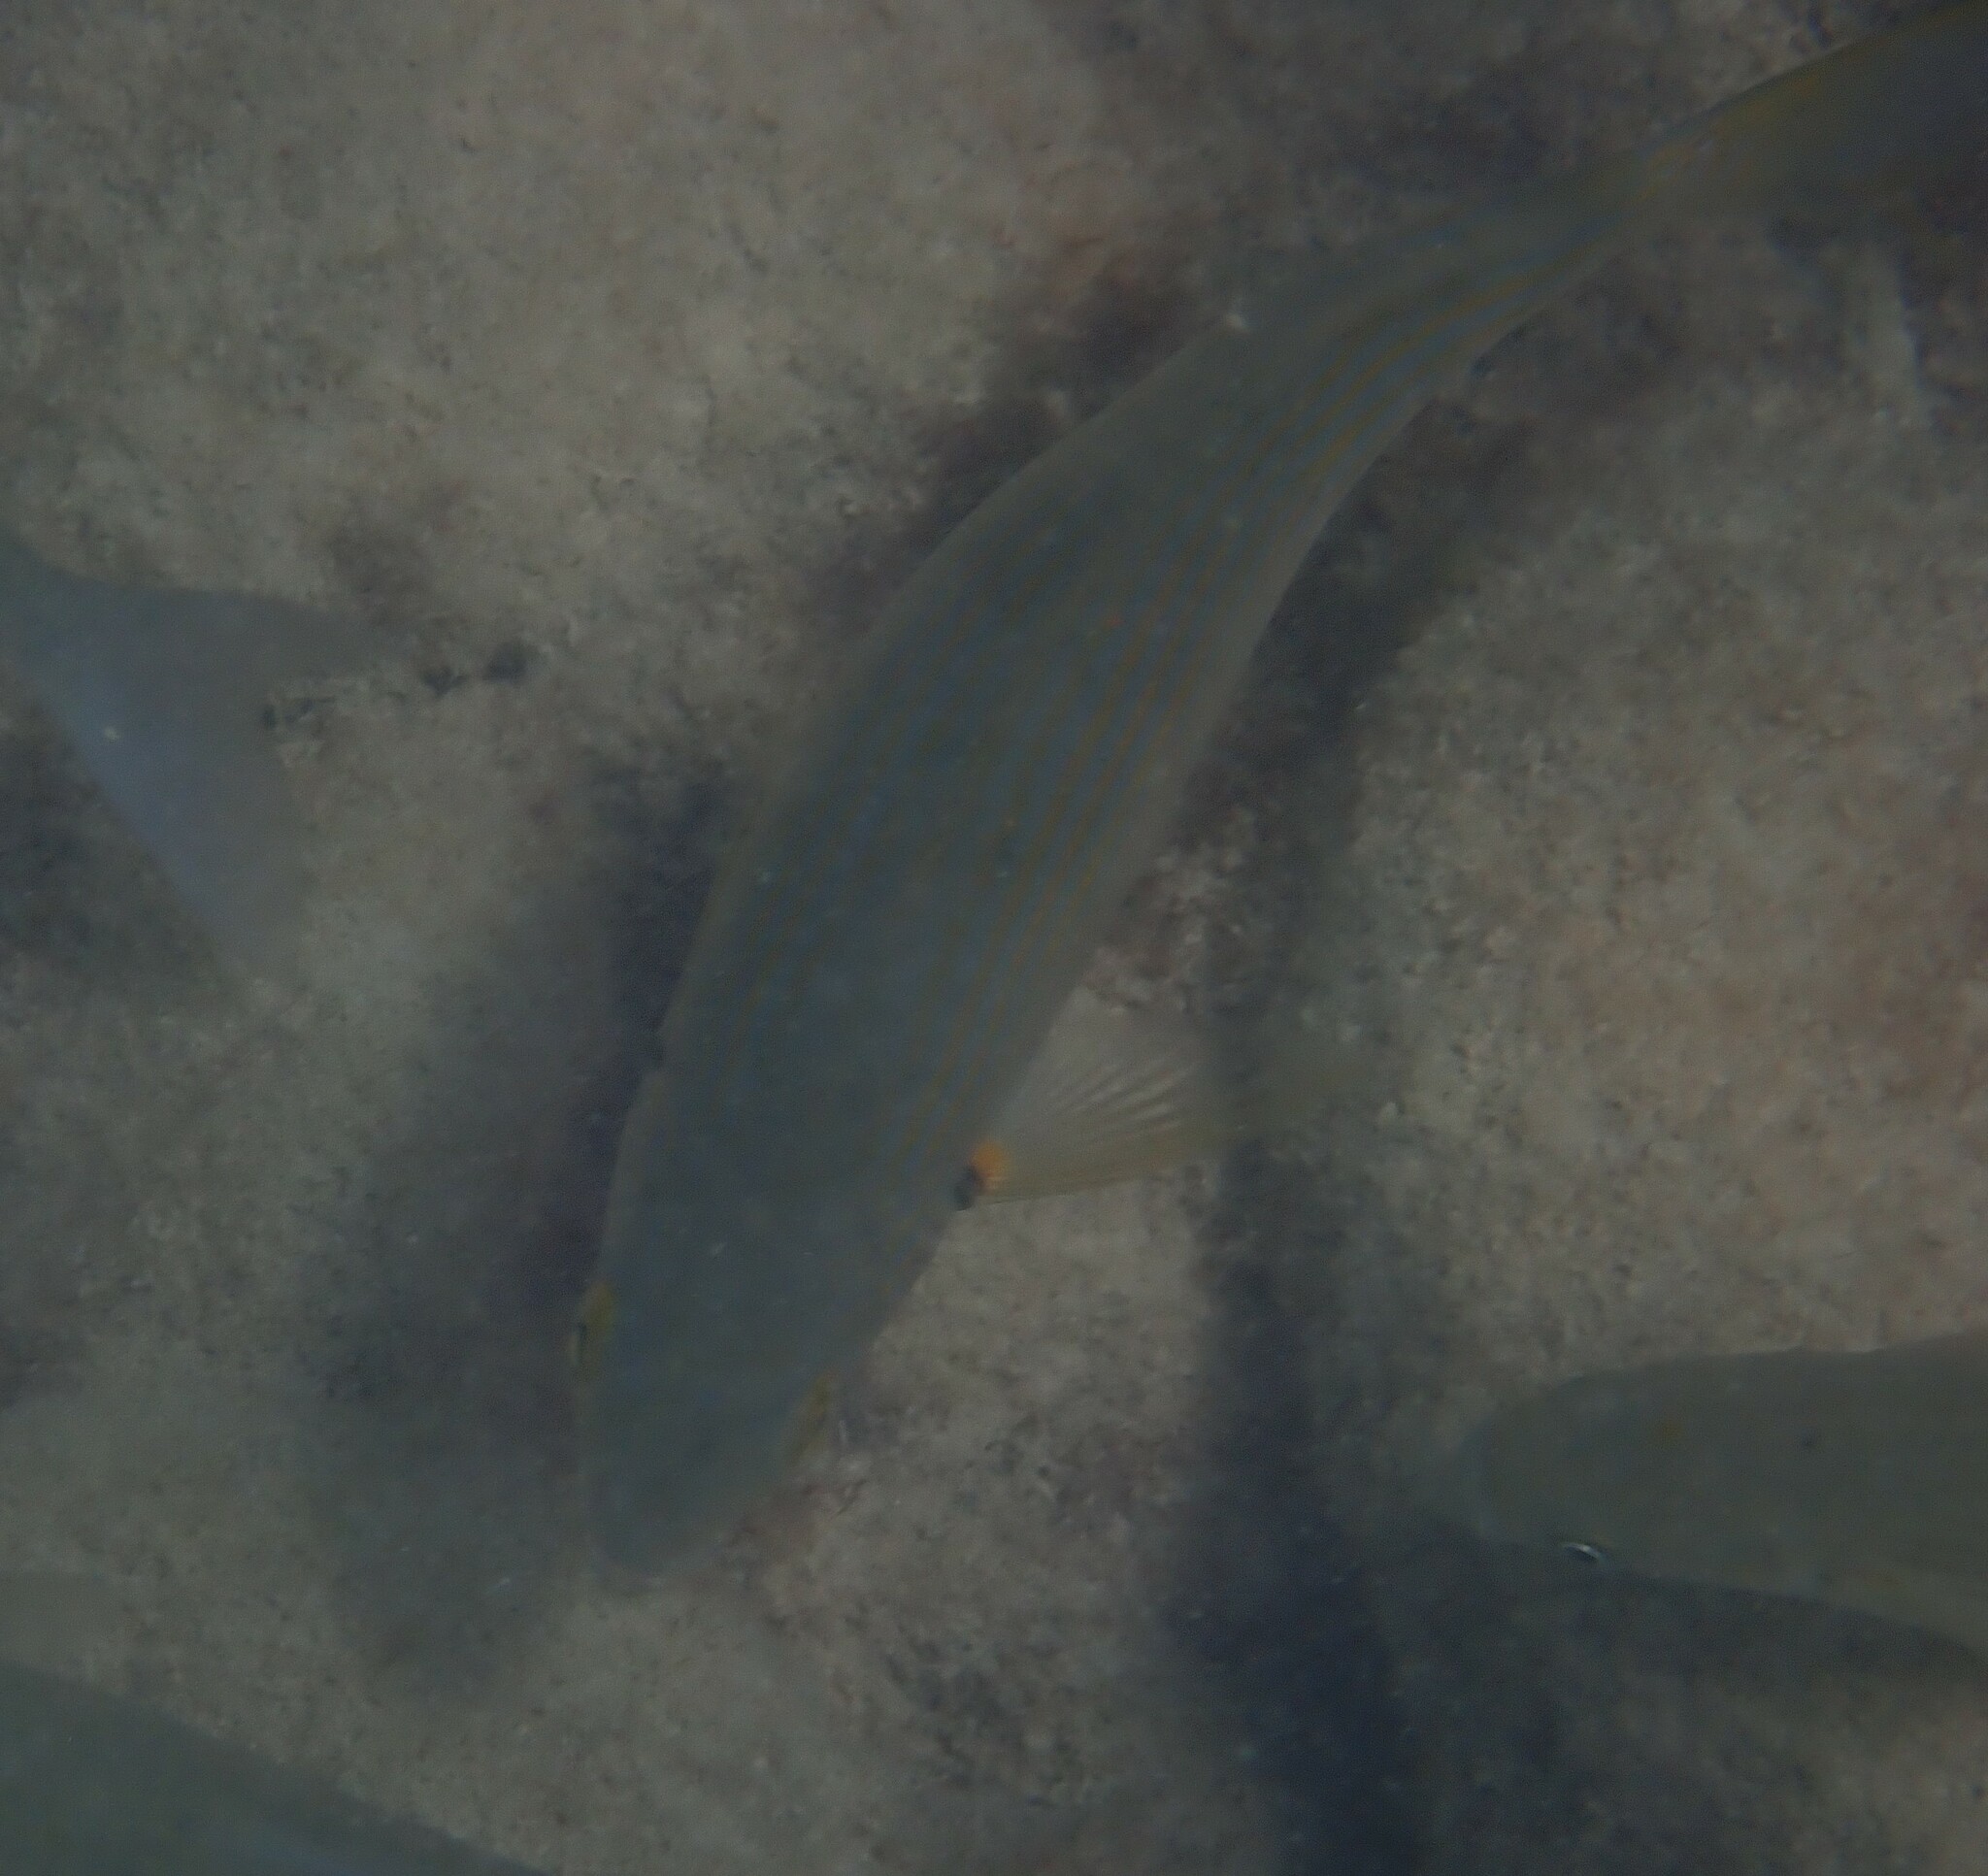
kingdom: Animalia
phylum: Chordata
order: Perciformes
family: Sparidae
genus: Sarpa
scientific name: Sarpa salpa
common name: Salema
